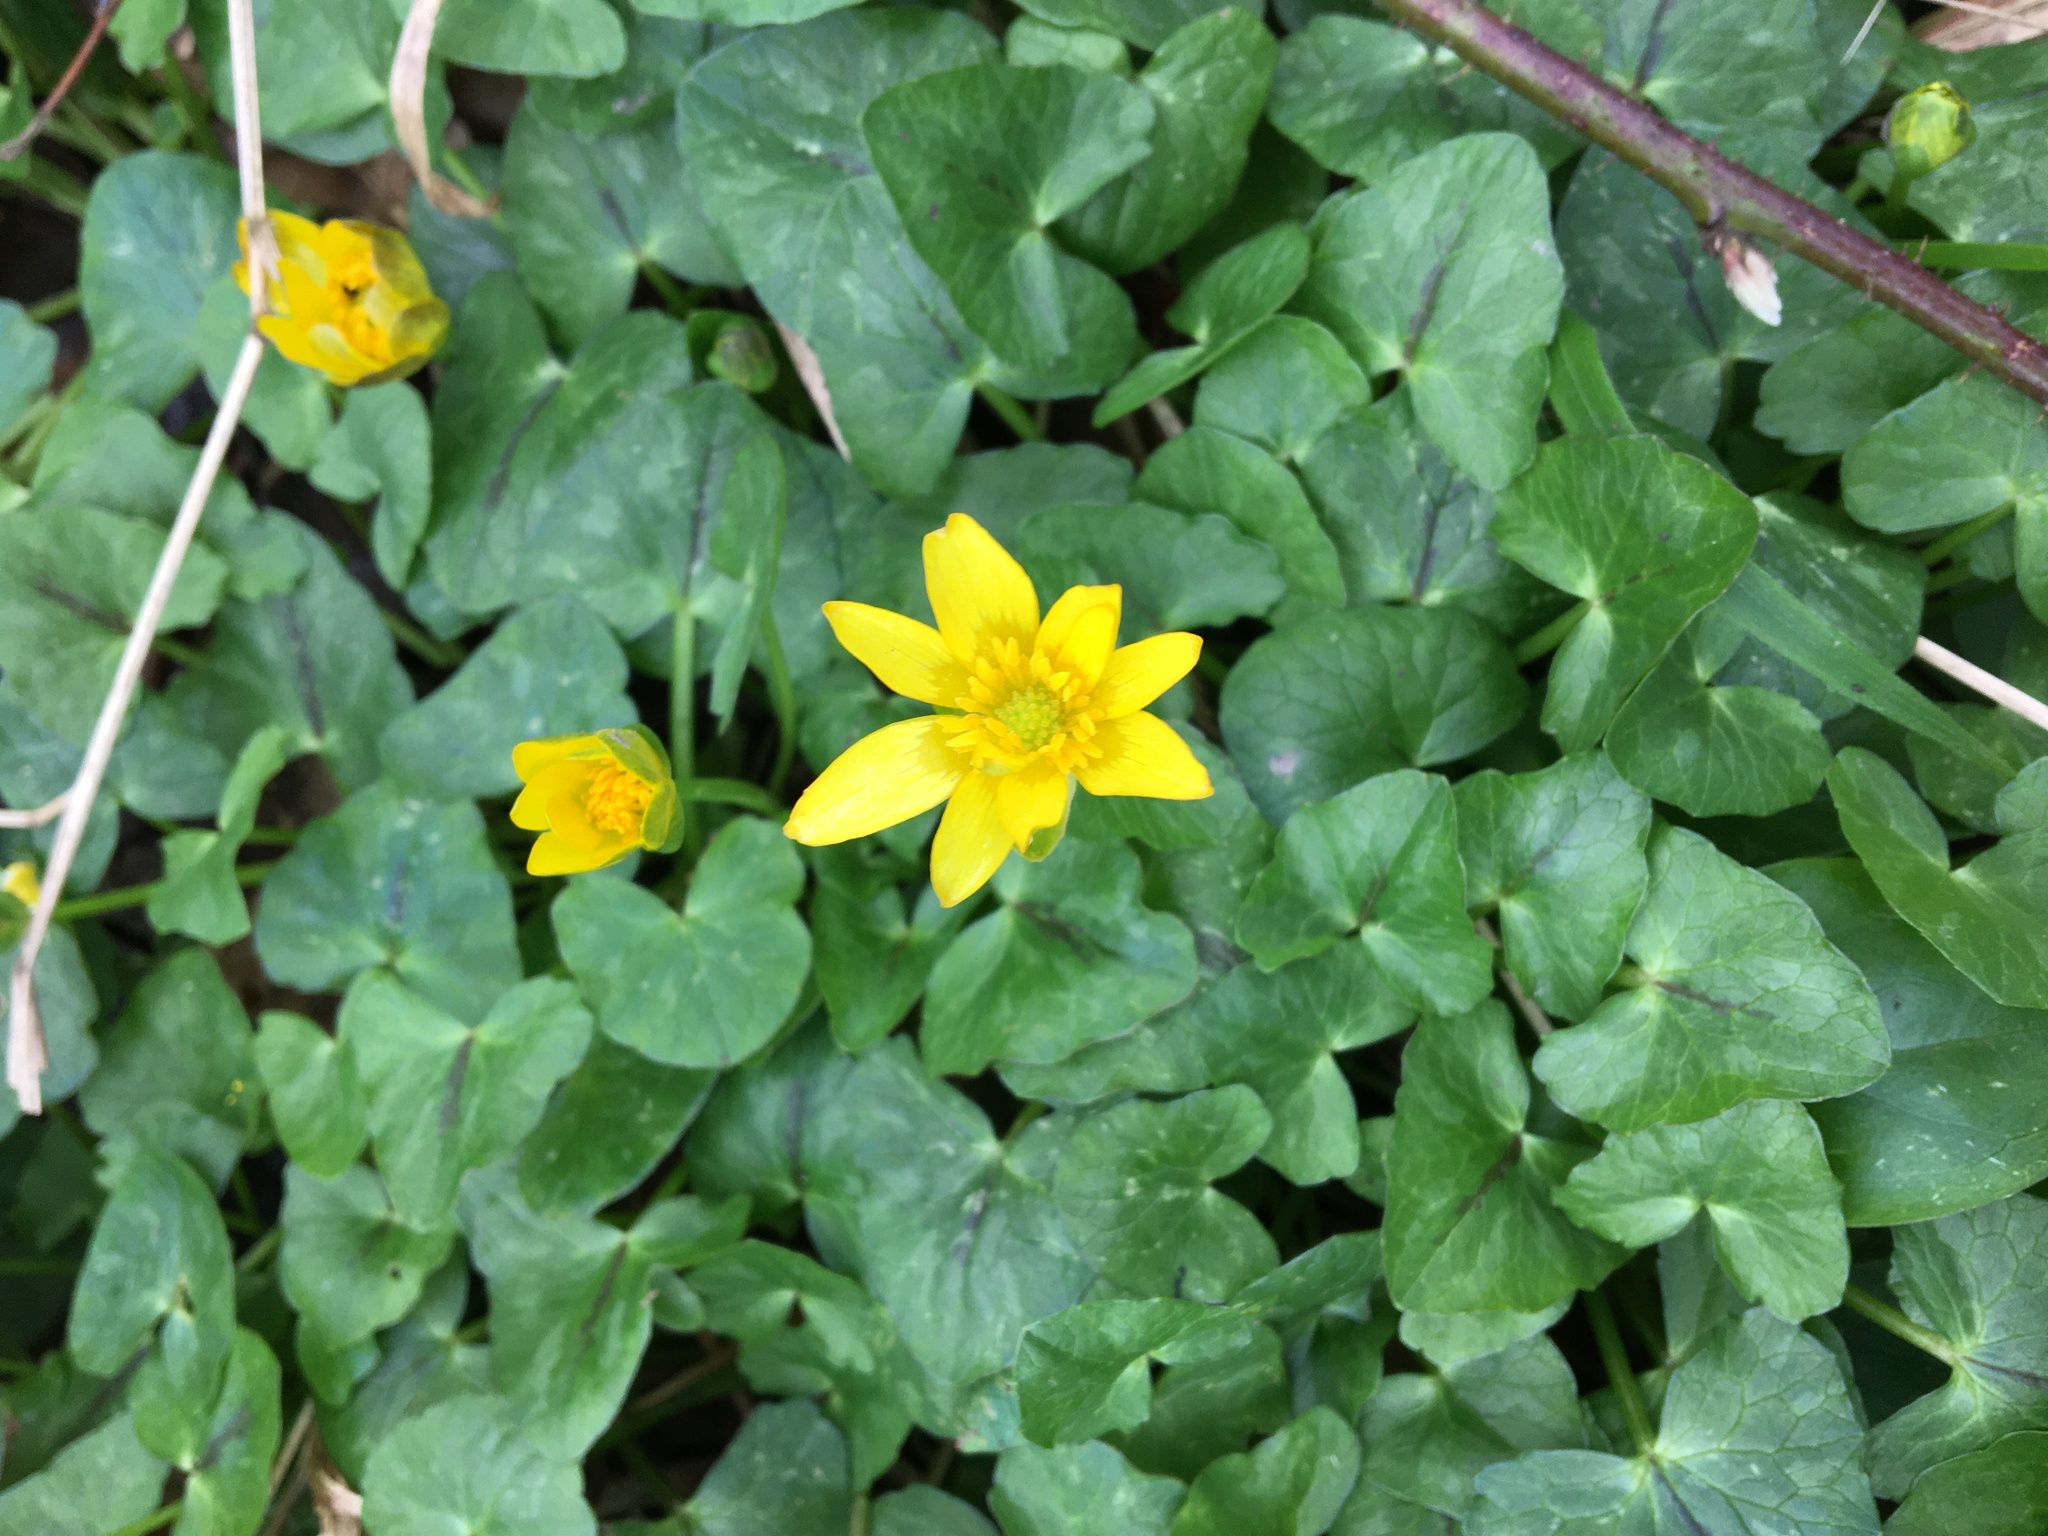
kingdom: Plantae
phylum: Tracheophyta
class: Magnoliopsida
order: Ranunculales
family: Ranunculaceae
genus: Ficaria
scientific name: Ficaria verna
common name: Lesser celandine
